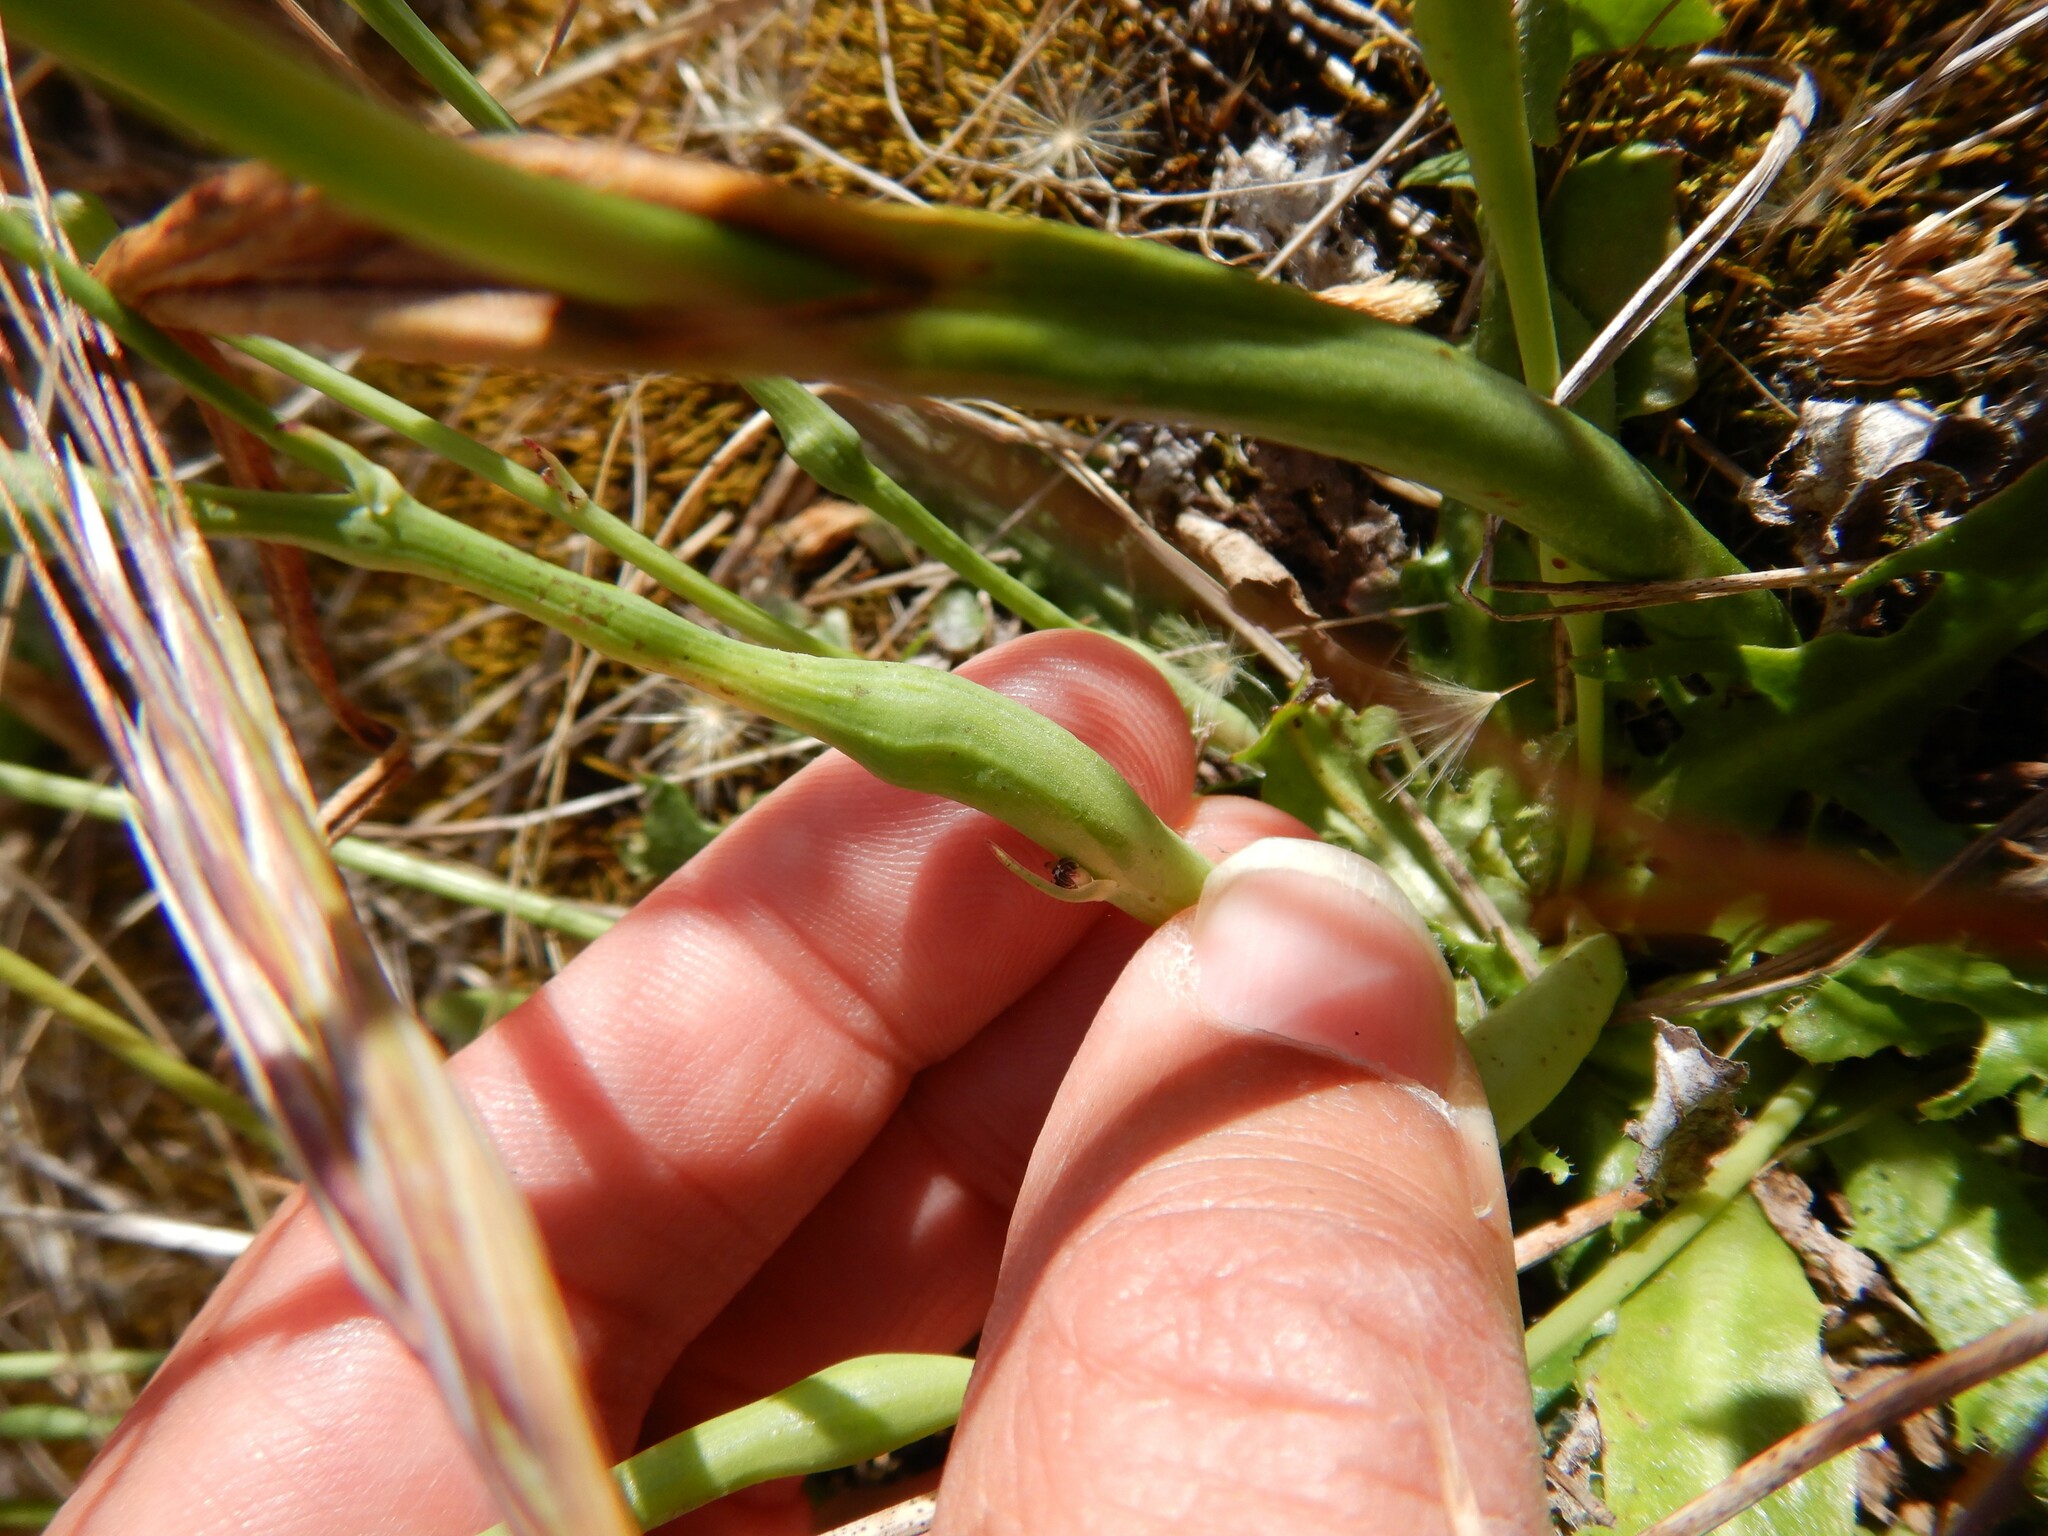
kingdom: Animalia
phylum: Arthropoda
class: Insecta
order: Hymenoptera
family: Cynipidae
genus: Phanacis
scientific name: Phanacis hypochoeridis
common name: Gall wasp
